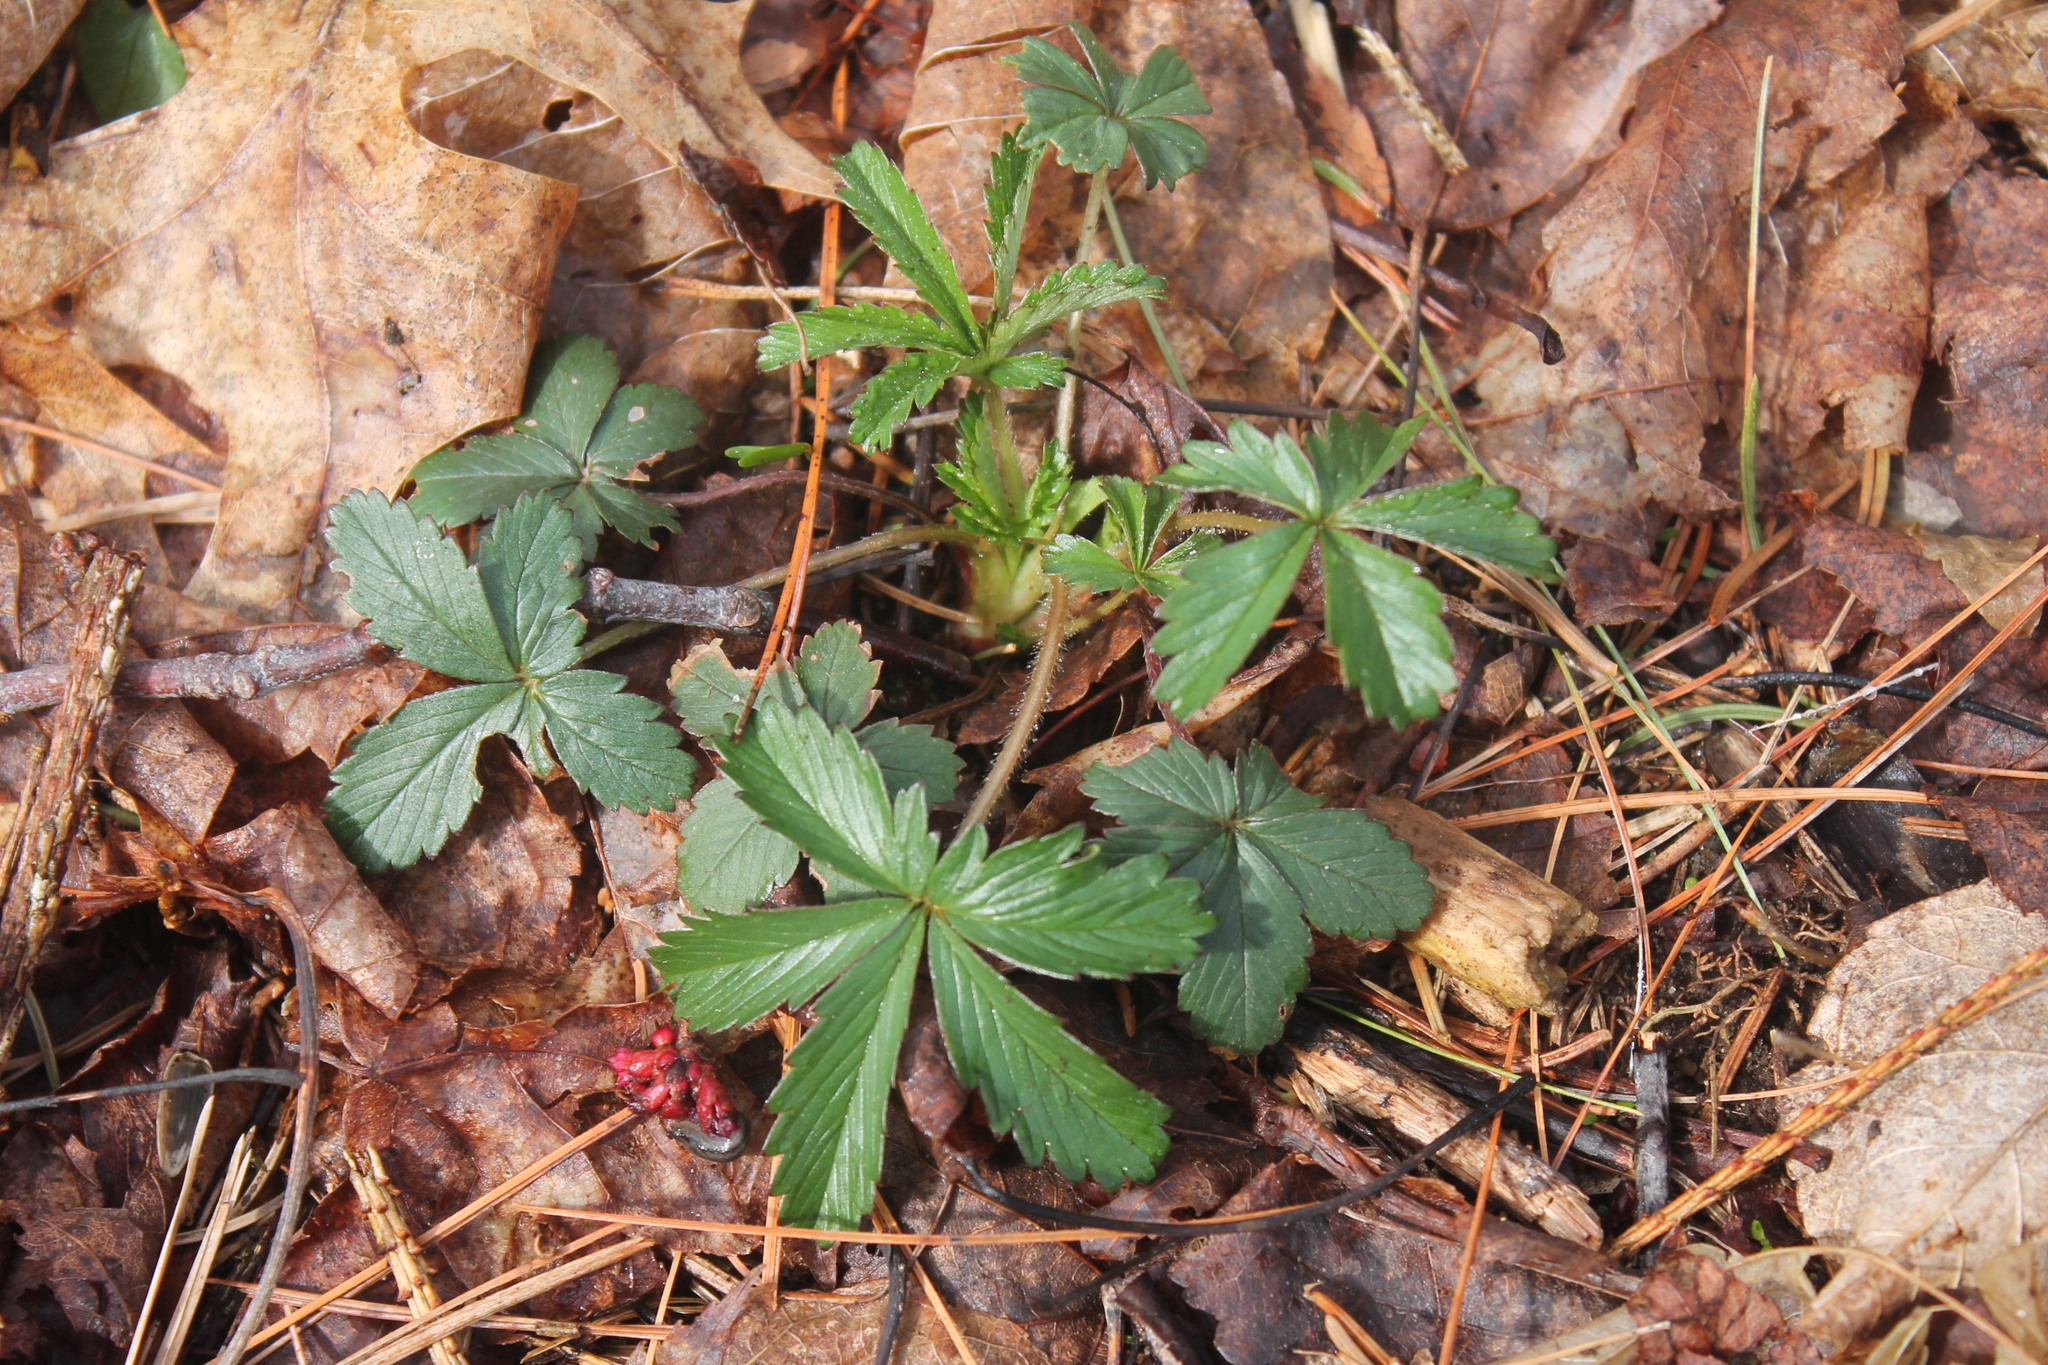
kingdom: Plantae
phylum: Tracheophyta
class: Magnoliopsida
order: Rosales
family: Rosaceae
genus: Potentilla
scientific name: Potentilla simplex
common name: Old field cinquefoil
